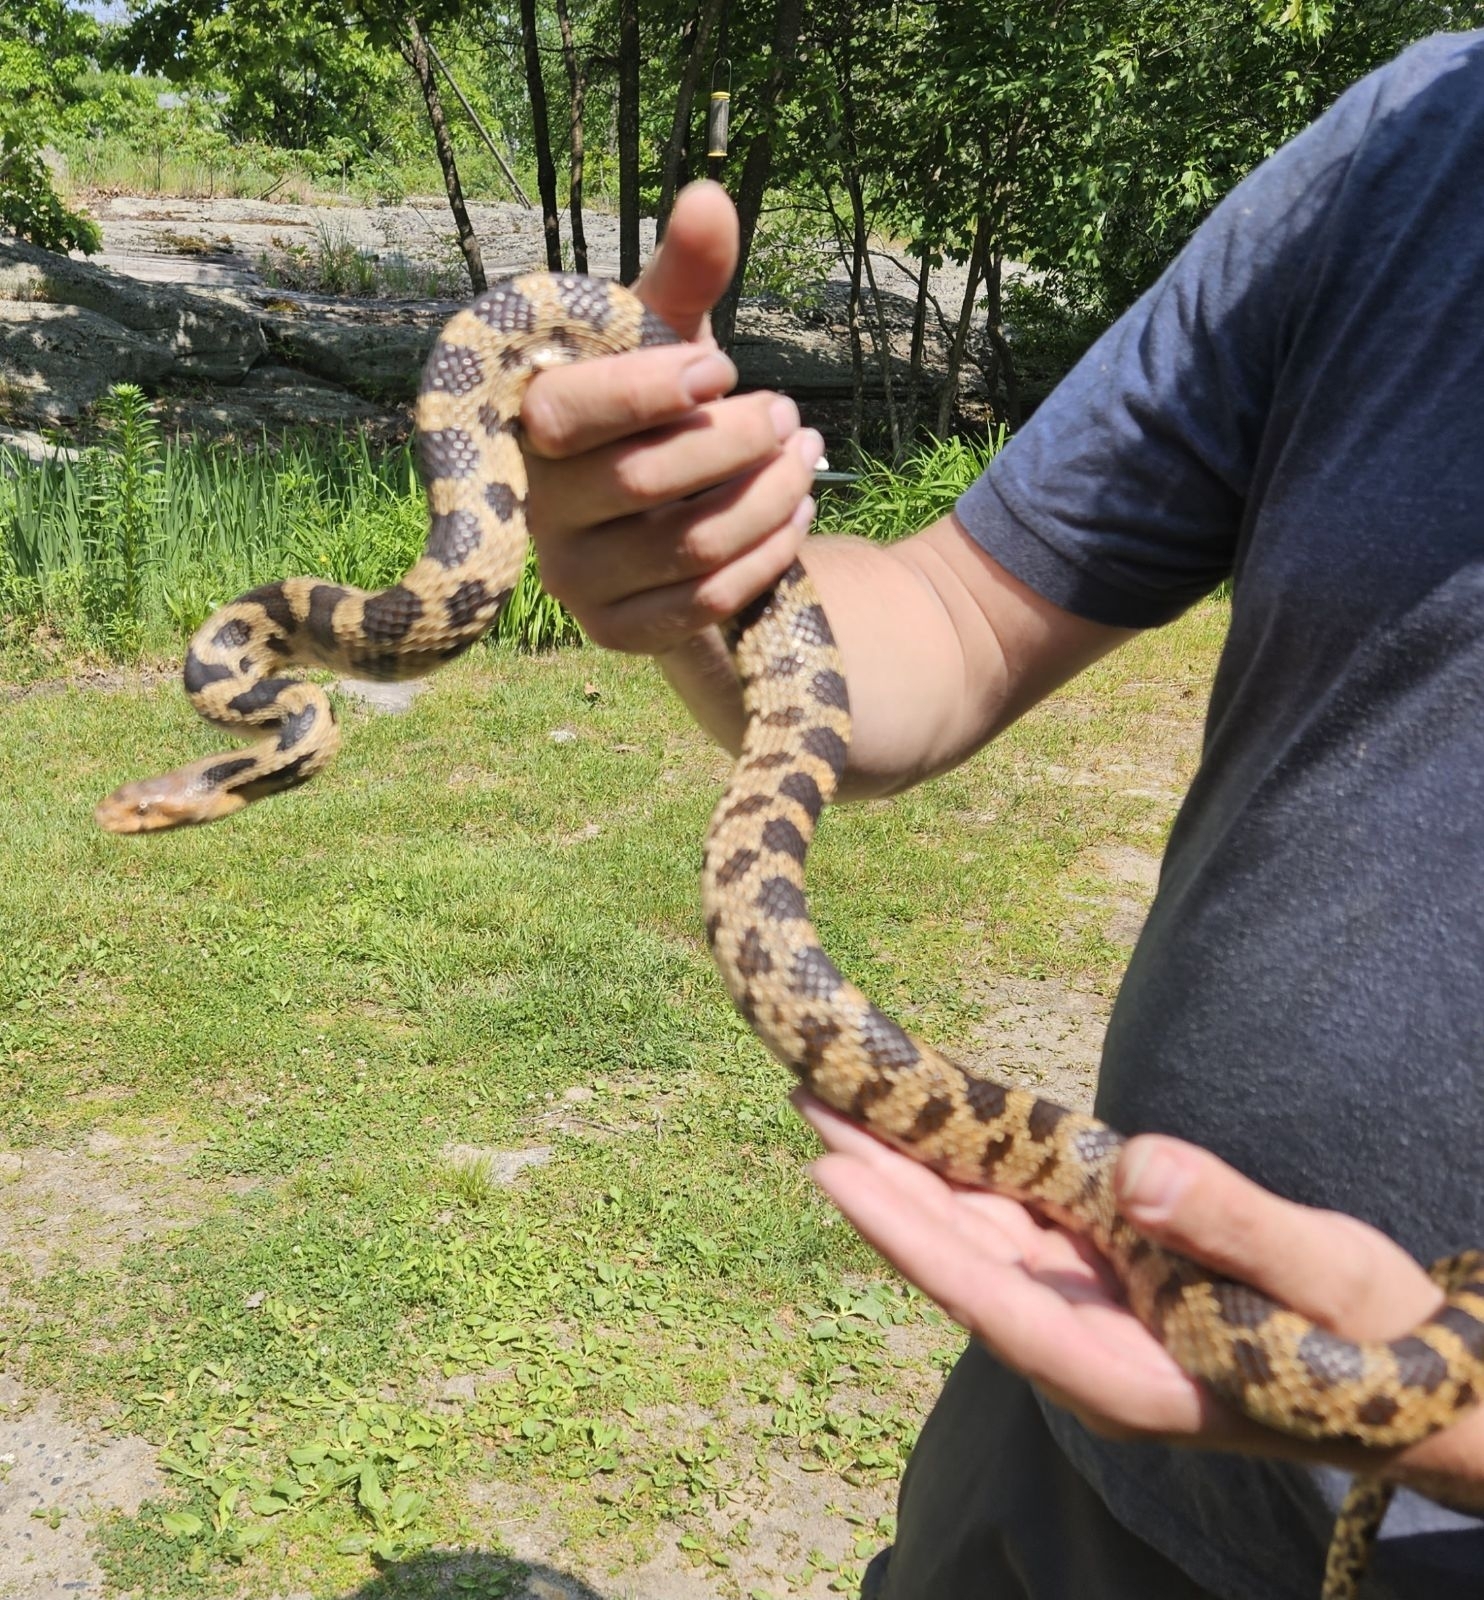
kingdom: Animalia
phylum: Chordata
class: Squamata
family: Colubridae
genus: Pantherophis
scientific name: Pantherophis vulpinus
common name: Eastern fox snake
